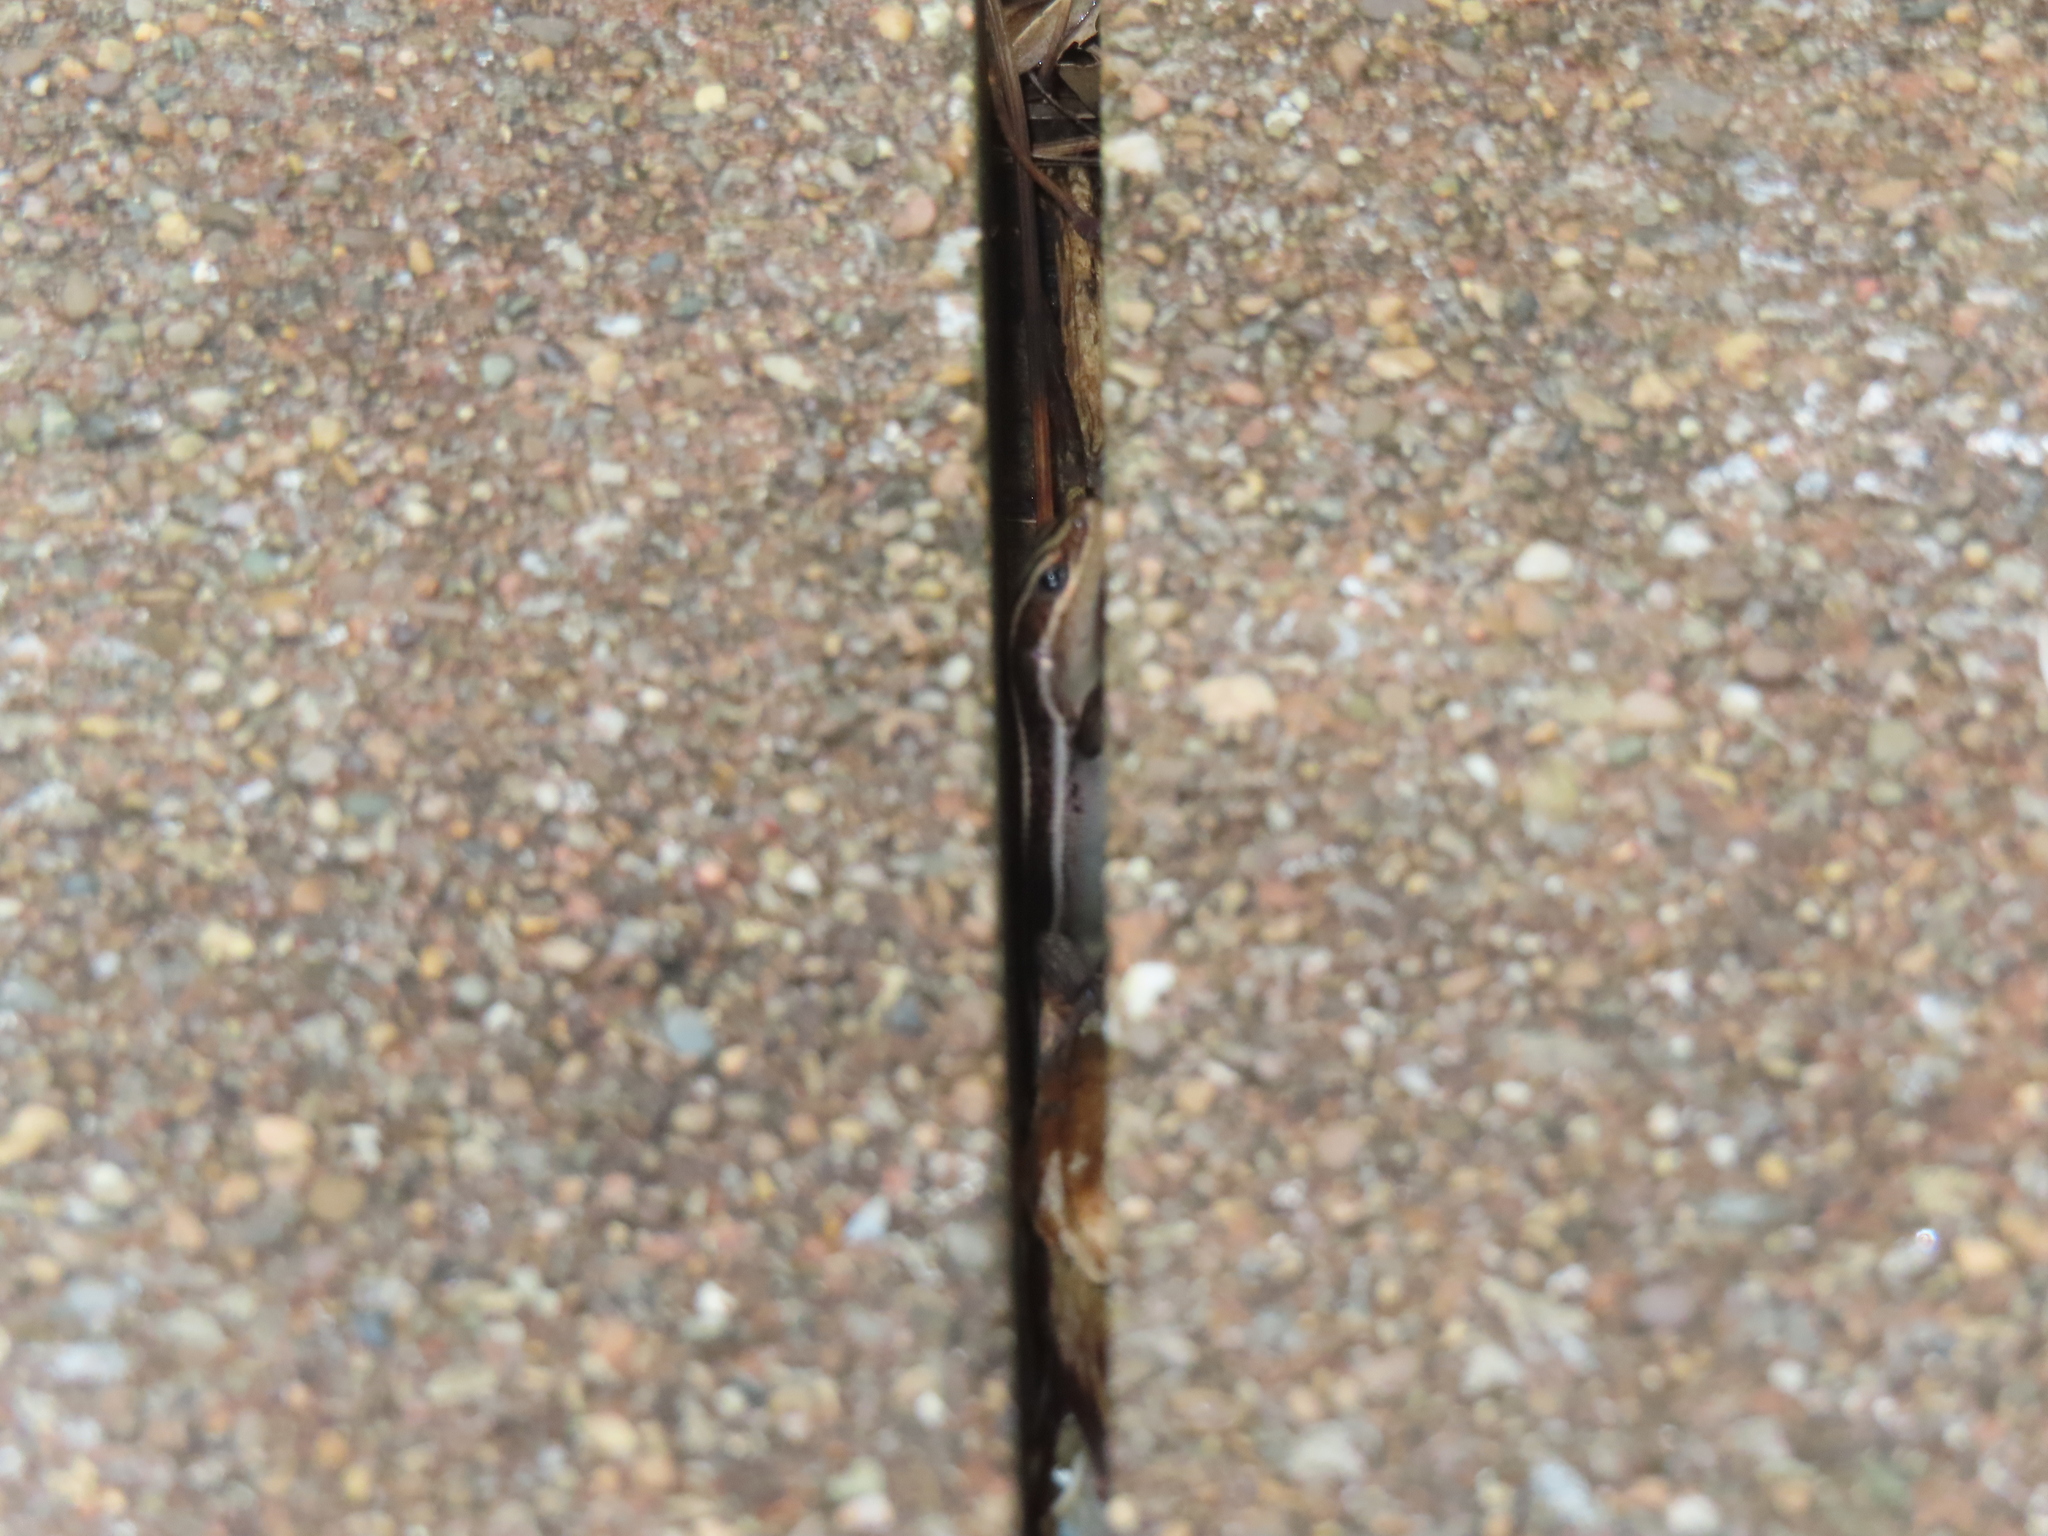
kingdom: Animalia
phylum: Chordata
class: Squamata
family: Scincidae
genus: Plestiodon
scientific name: Plestiodon fasciatus
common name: Five-lined skink
